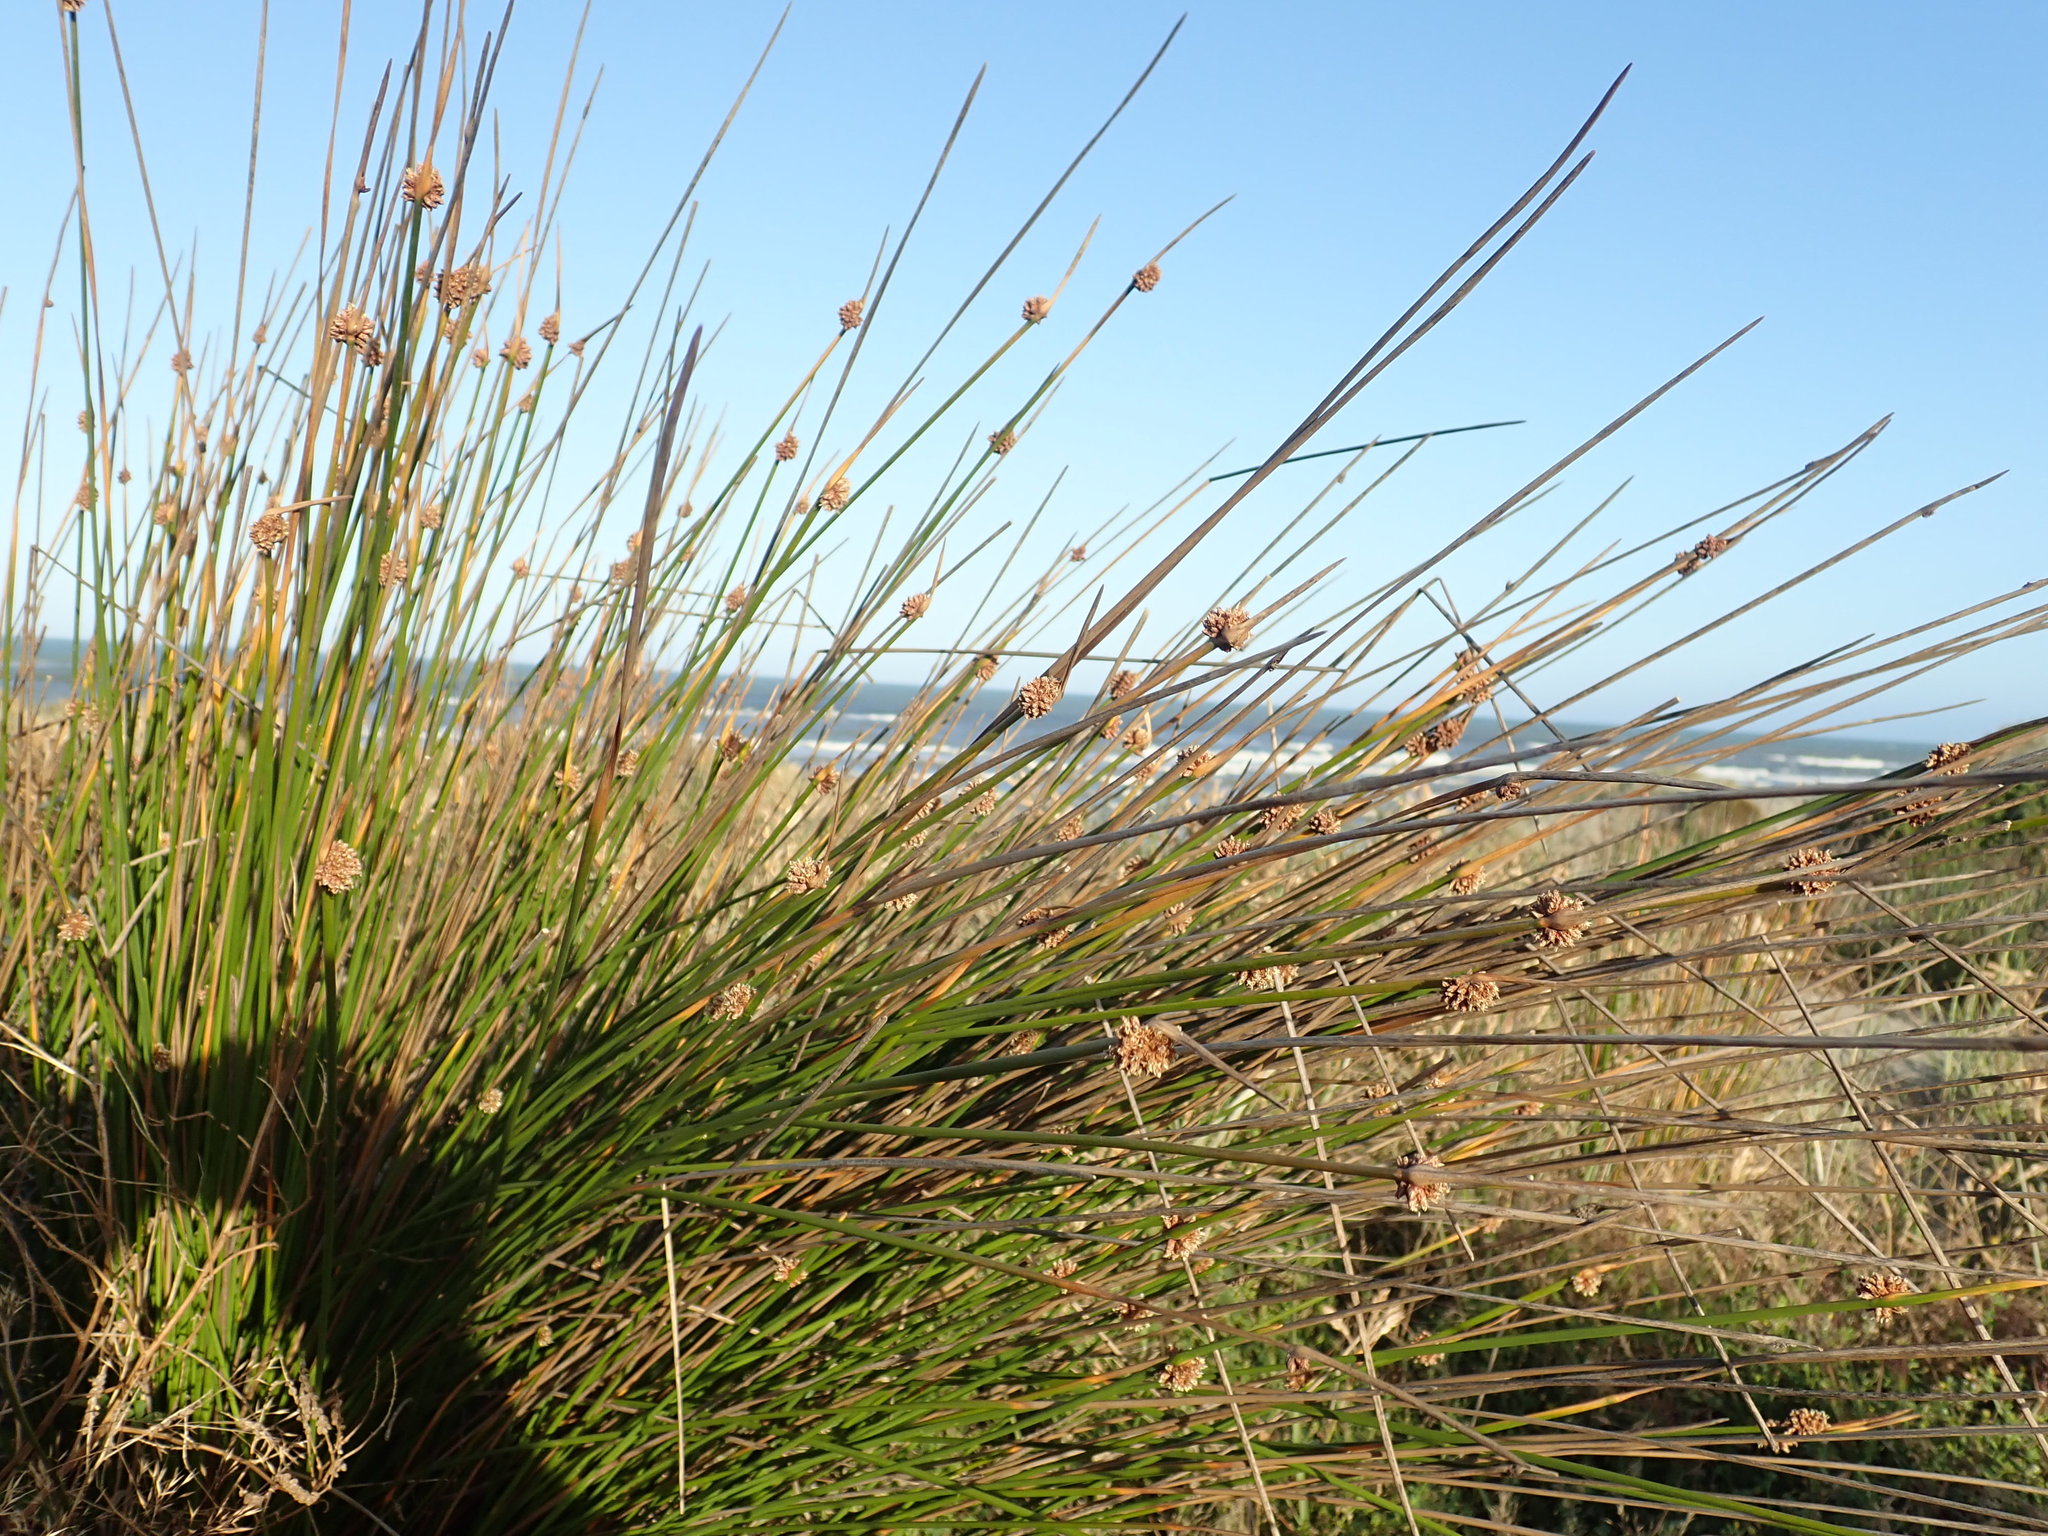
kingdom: Plantae
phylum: Tracheophyta
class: Liliopsida
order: Poales
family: Cyperaceae
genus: Ficinia
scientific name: Ficinia nodosa
